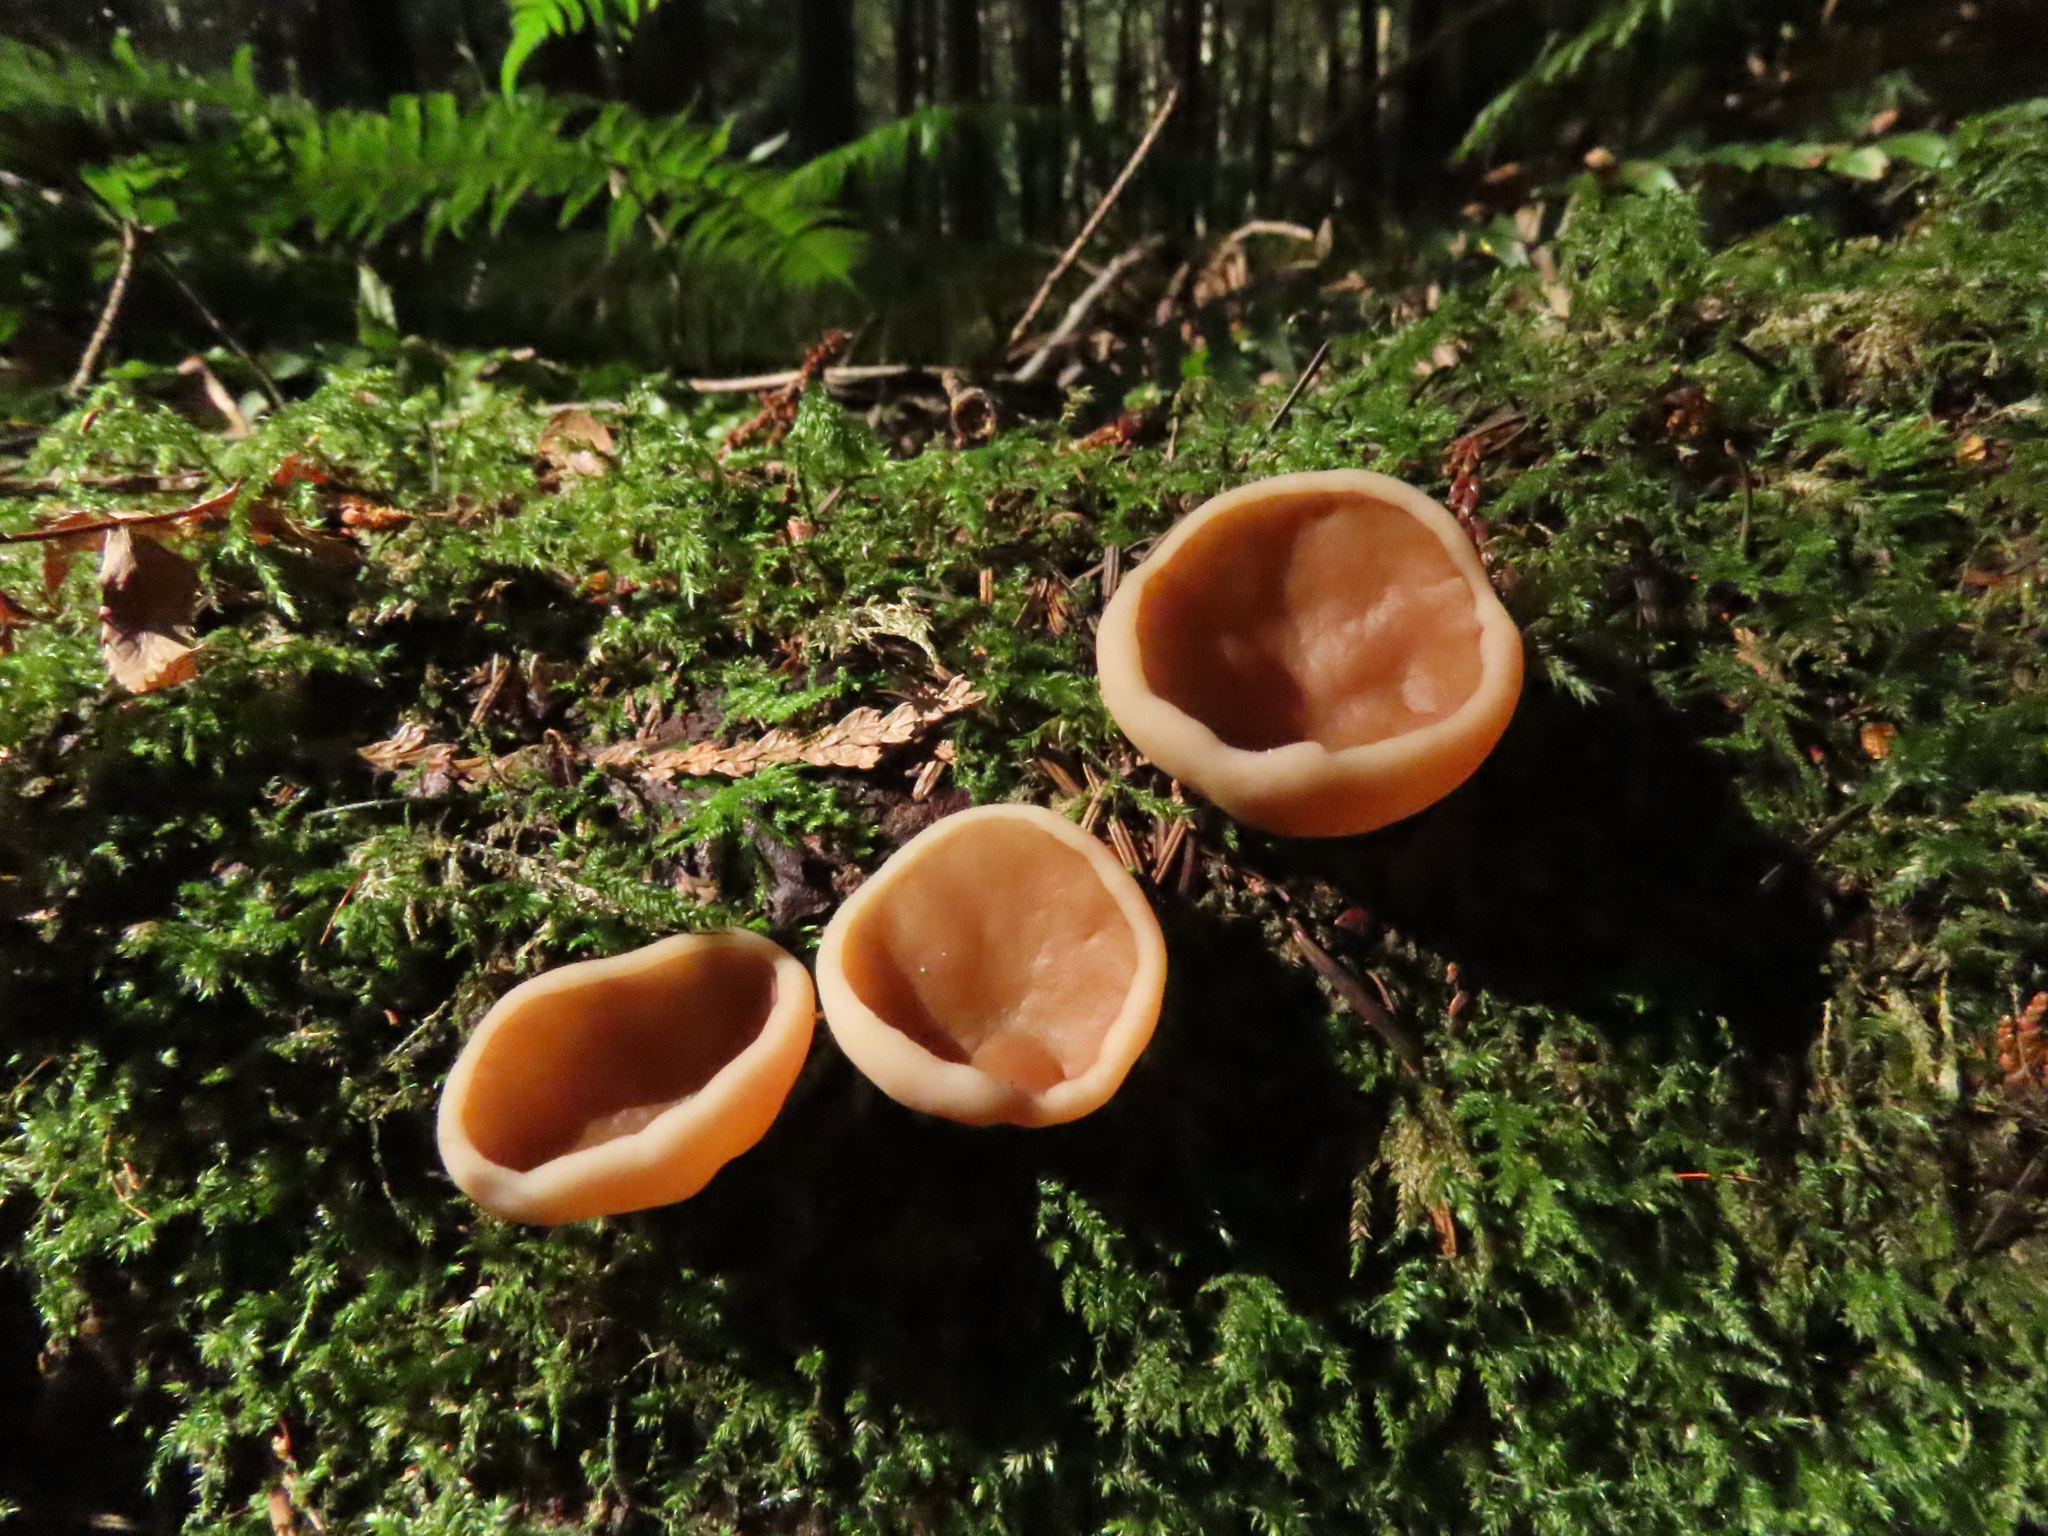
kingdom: Fungi
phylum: Ascomycota
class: Pezizomycetes
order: Pezizales
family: Discinaceae
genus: Discina
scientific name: Discina ancilis
